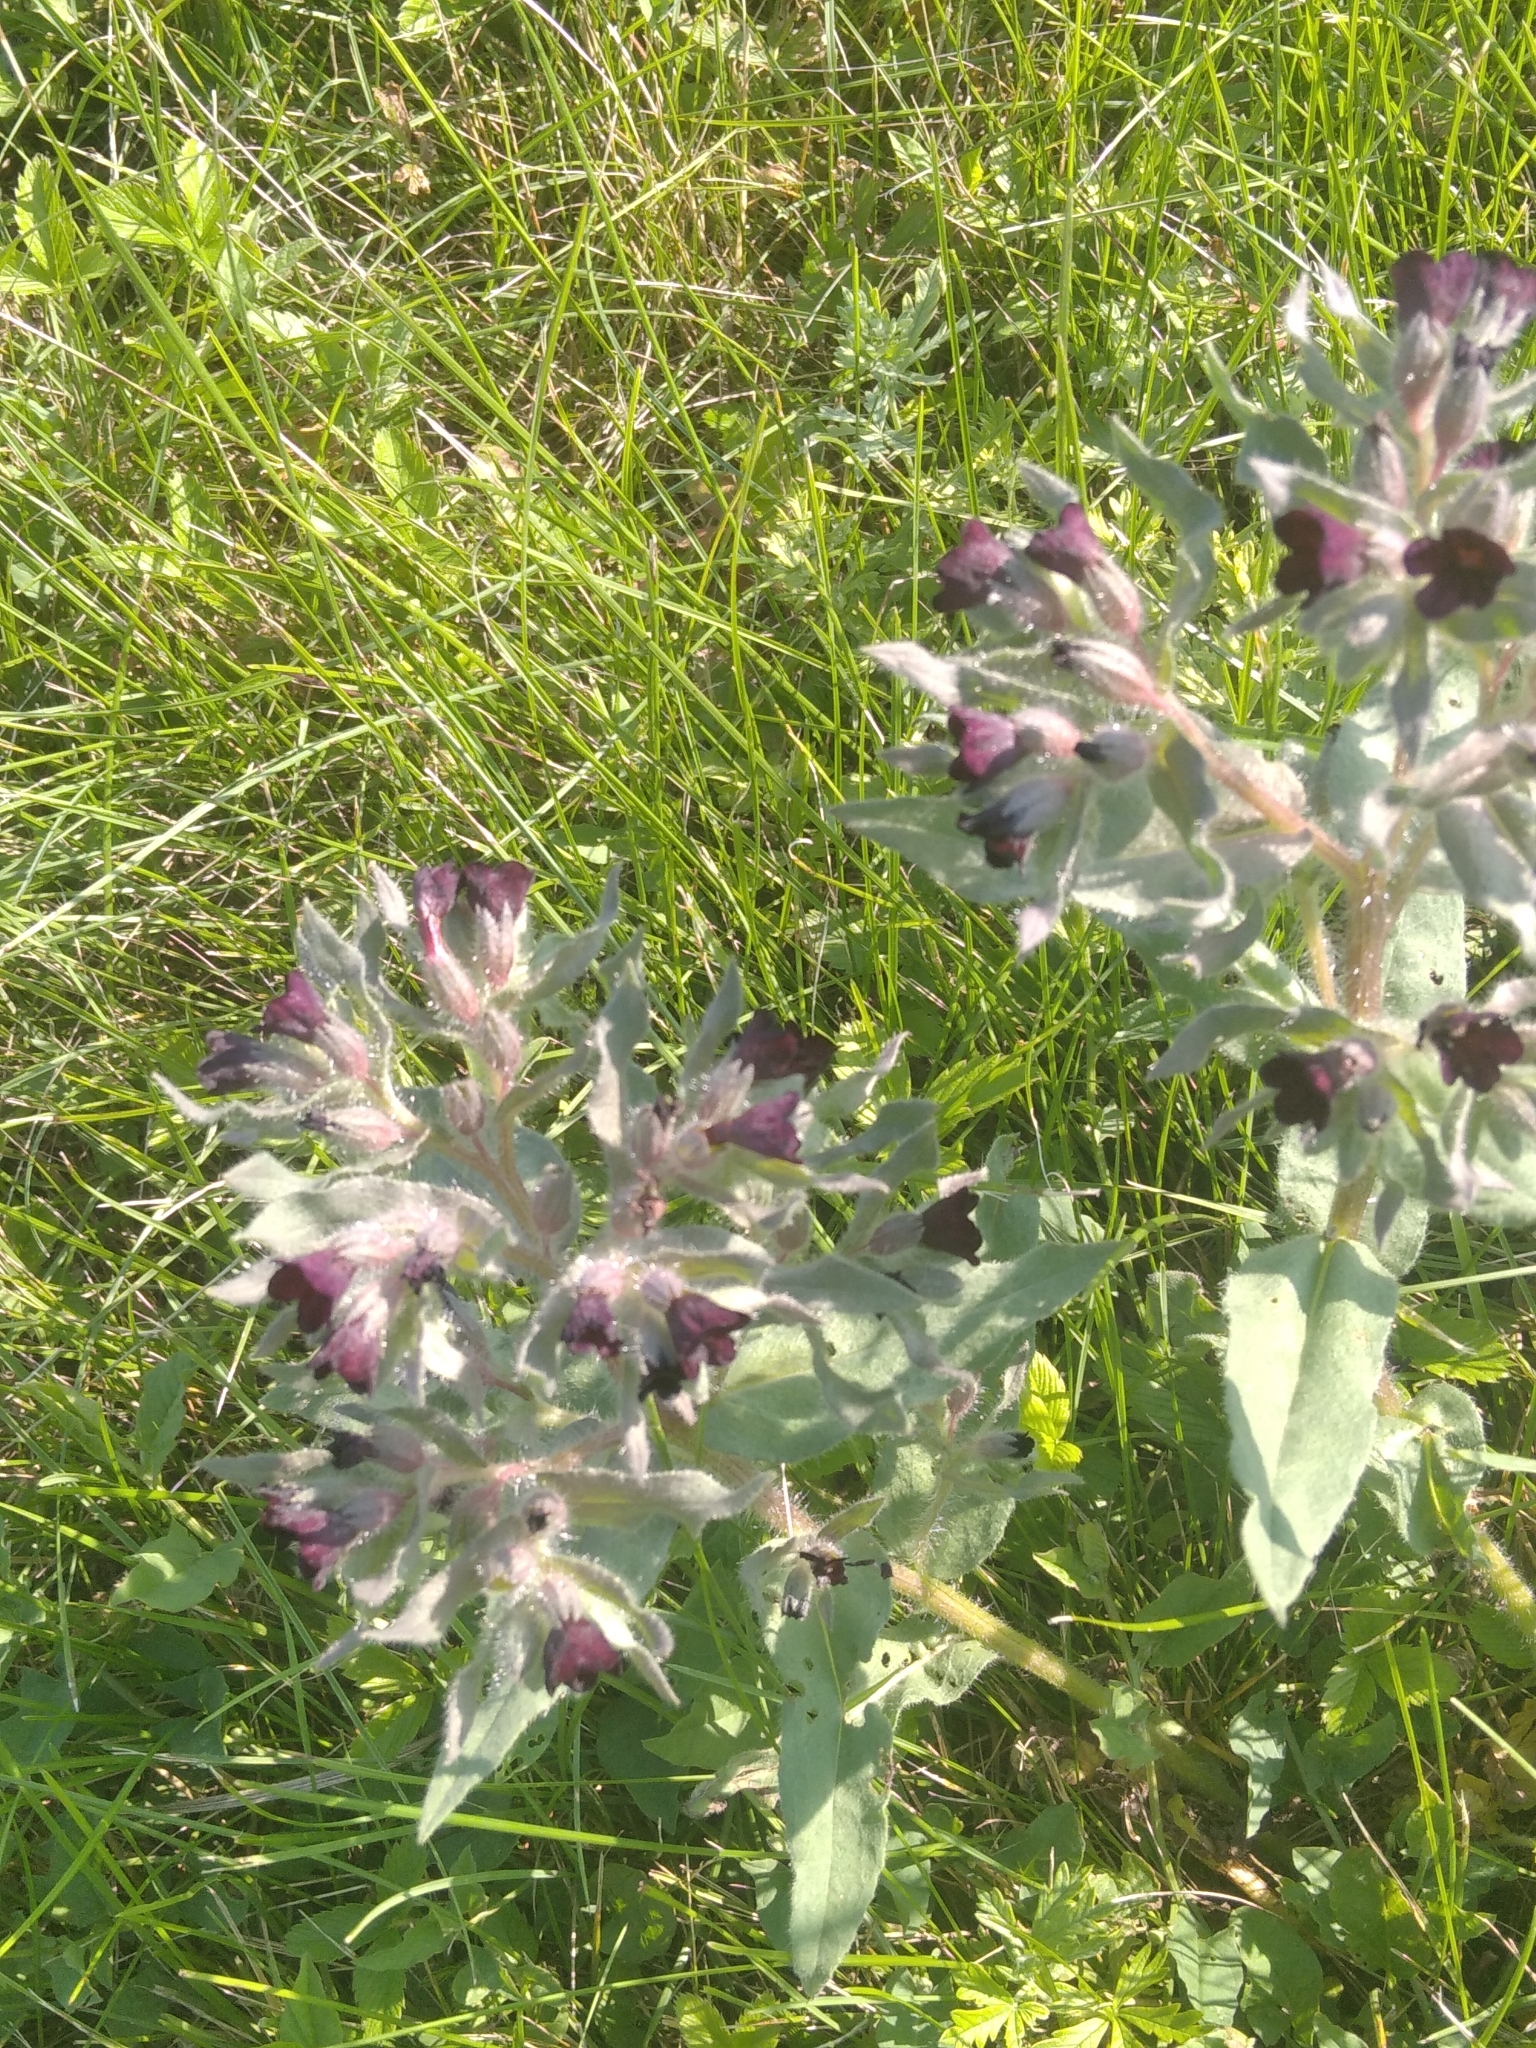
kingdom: Plantae
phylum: Tracheophyta
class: Magnoliopsida
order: Boraginales
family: Boraginaceae
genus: Nonea
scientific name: Nonea pulla
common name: Brown nonea
